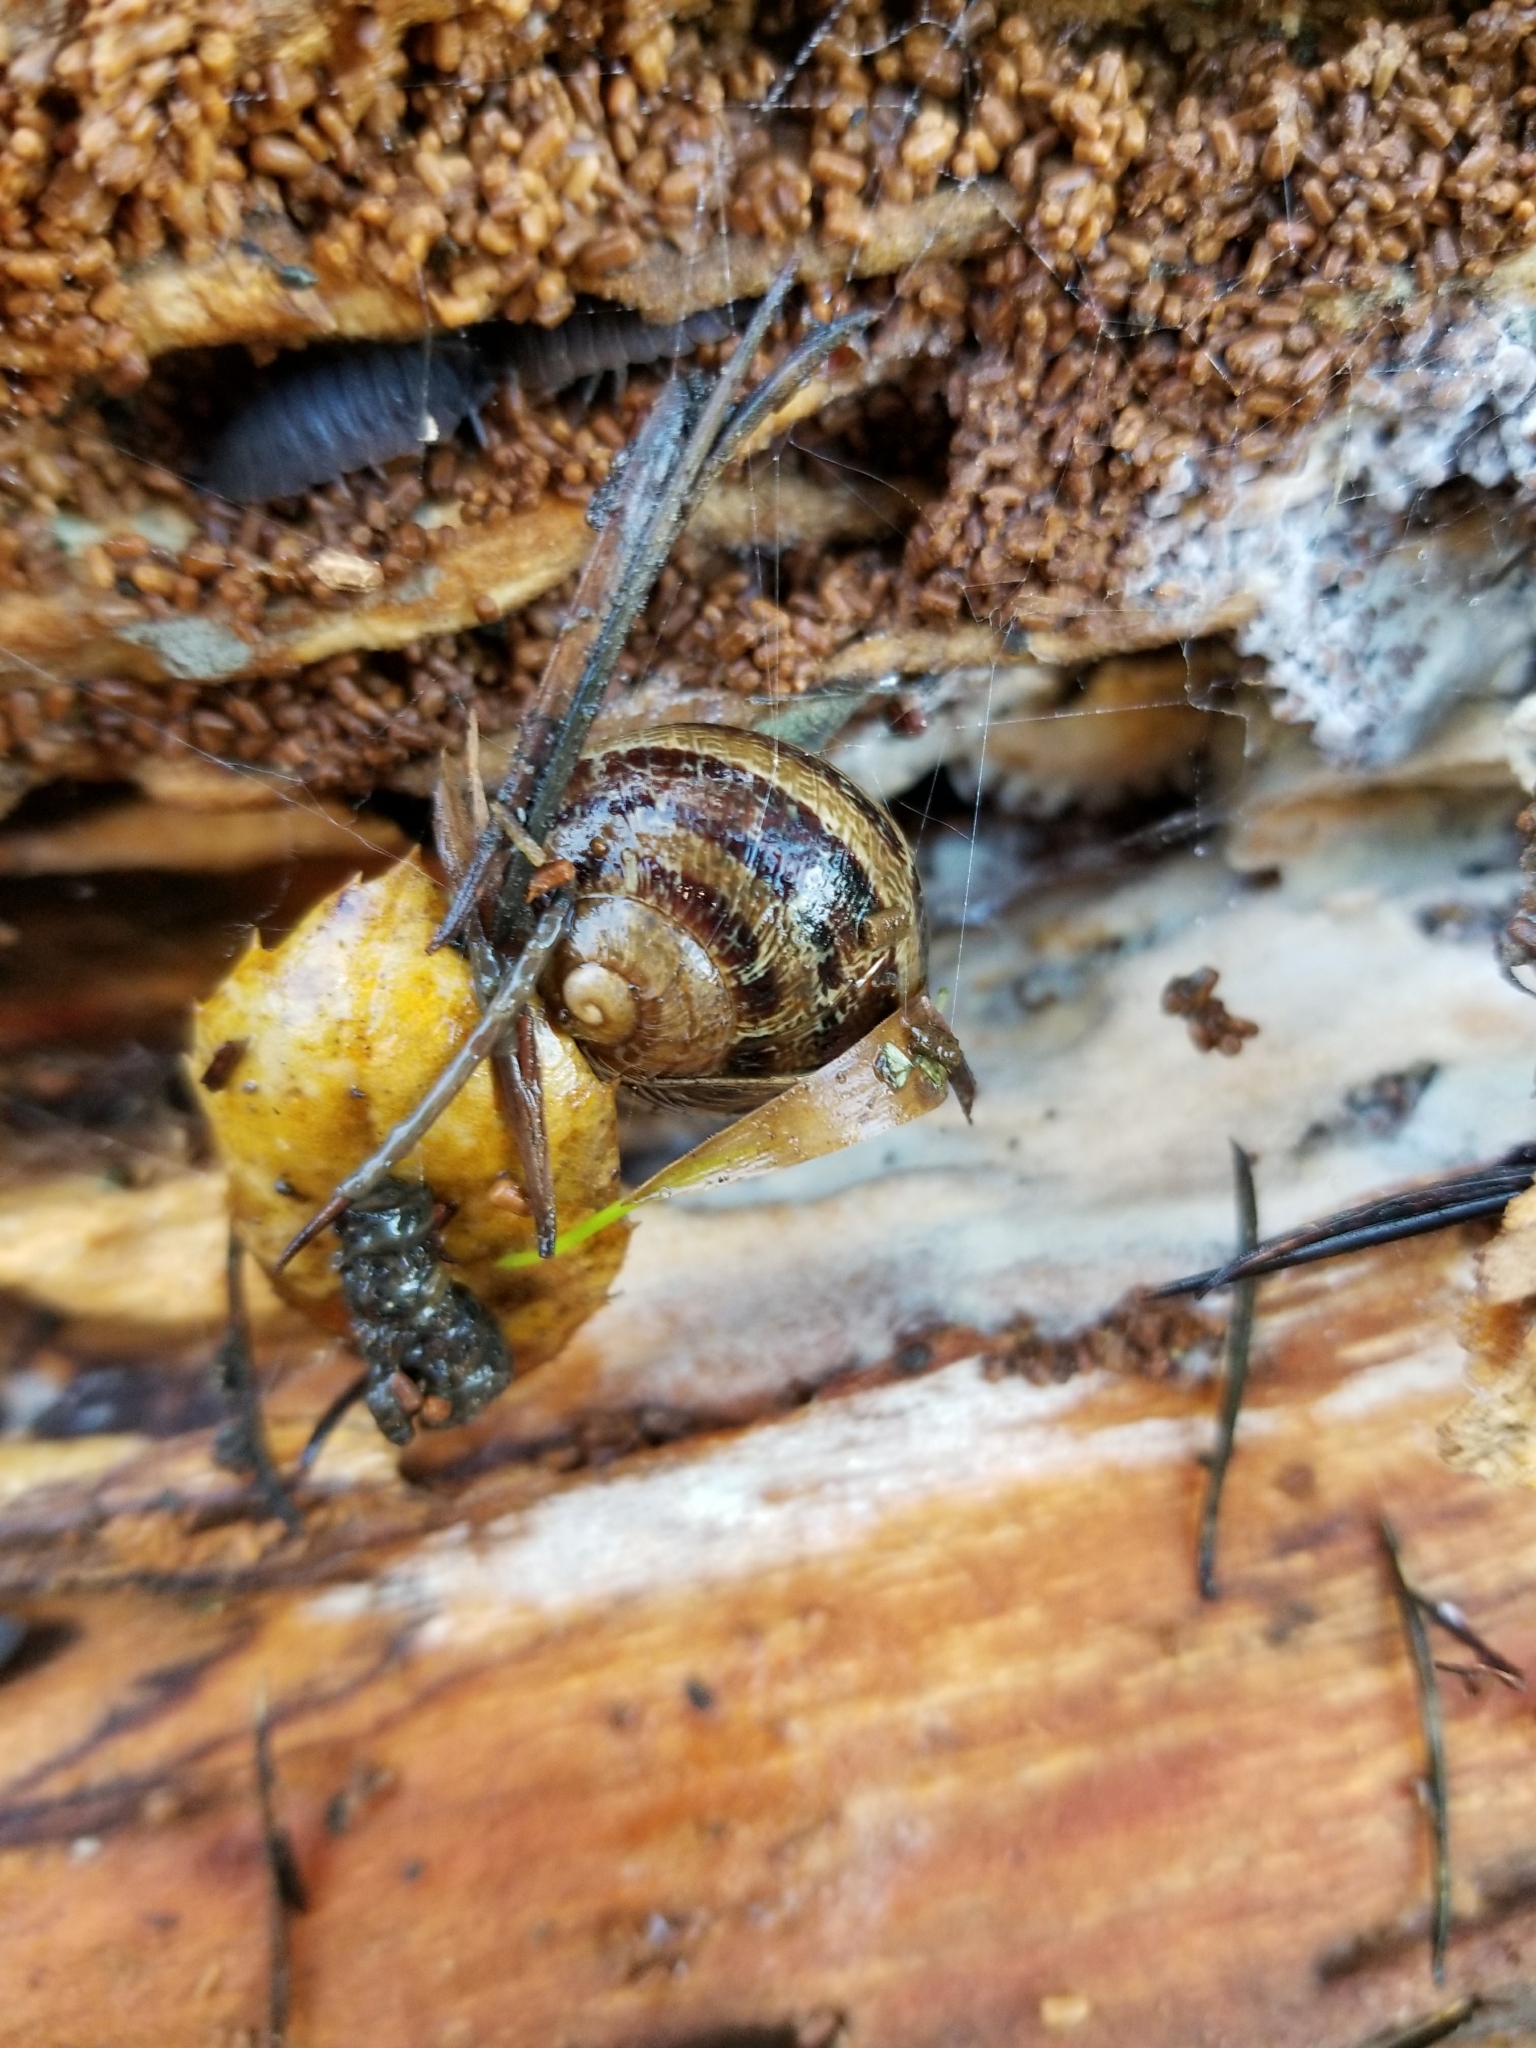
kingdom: Animalia
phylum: Mollusca
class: Gastropoda
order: Stylommatophora
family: Helicidae
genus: Cornu
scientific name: Cornu aspersum
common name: Brown garden snail
